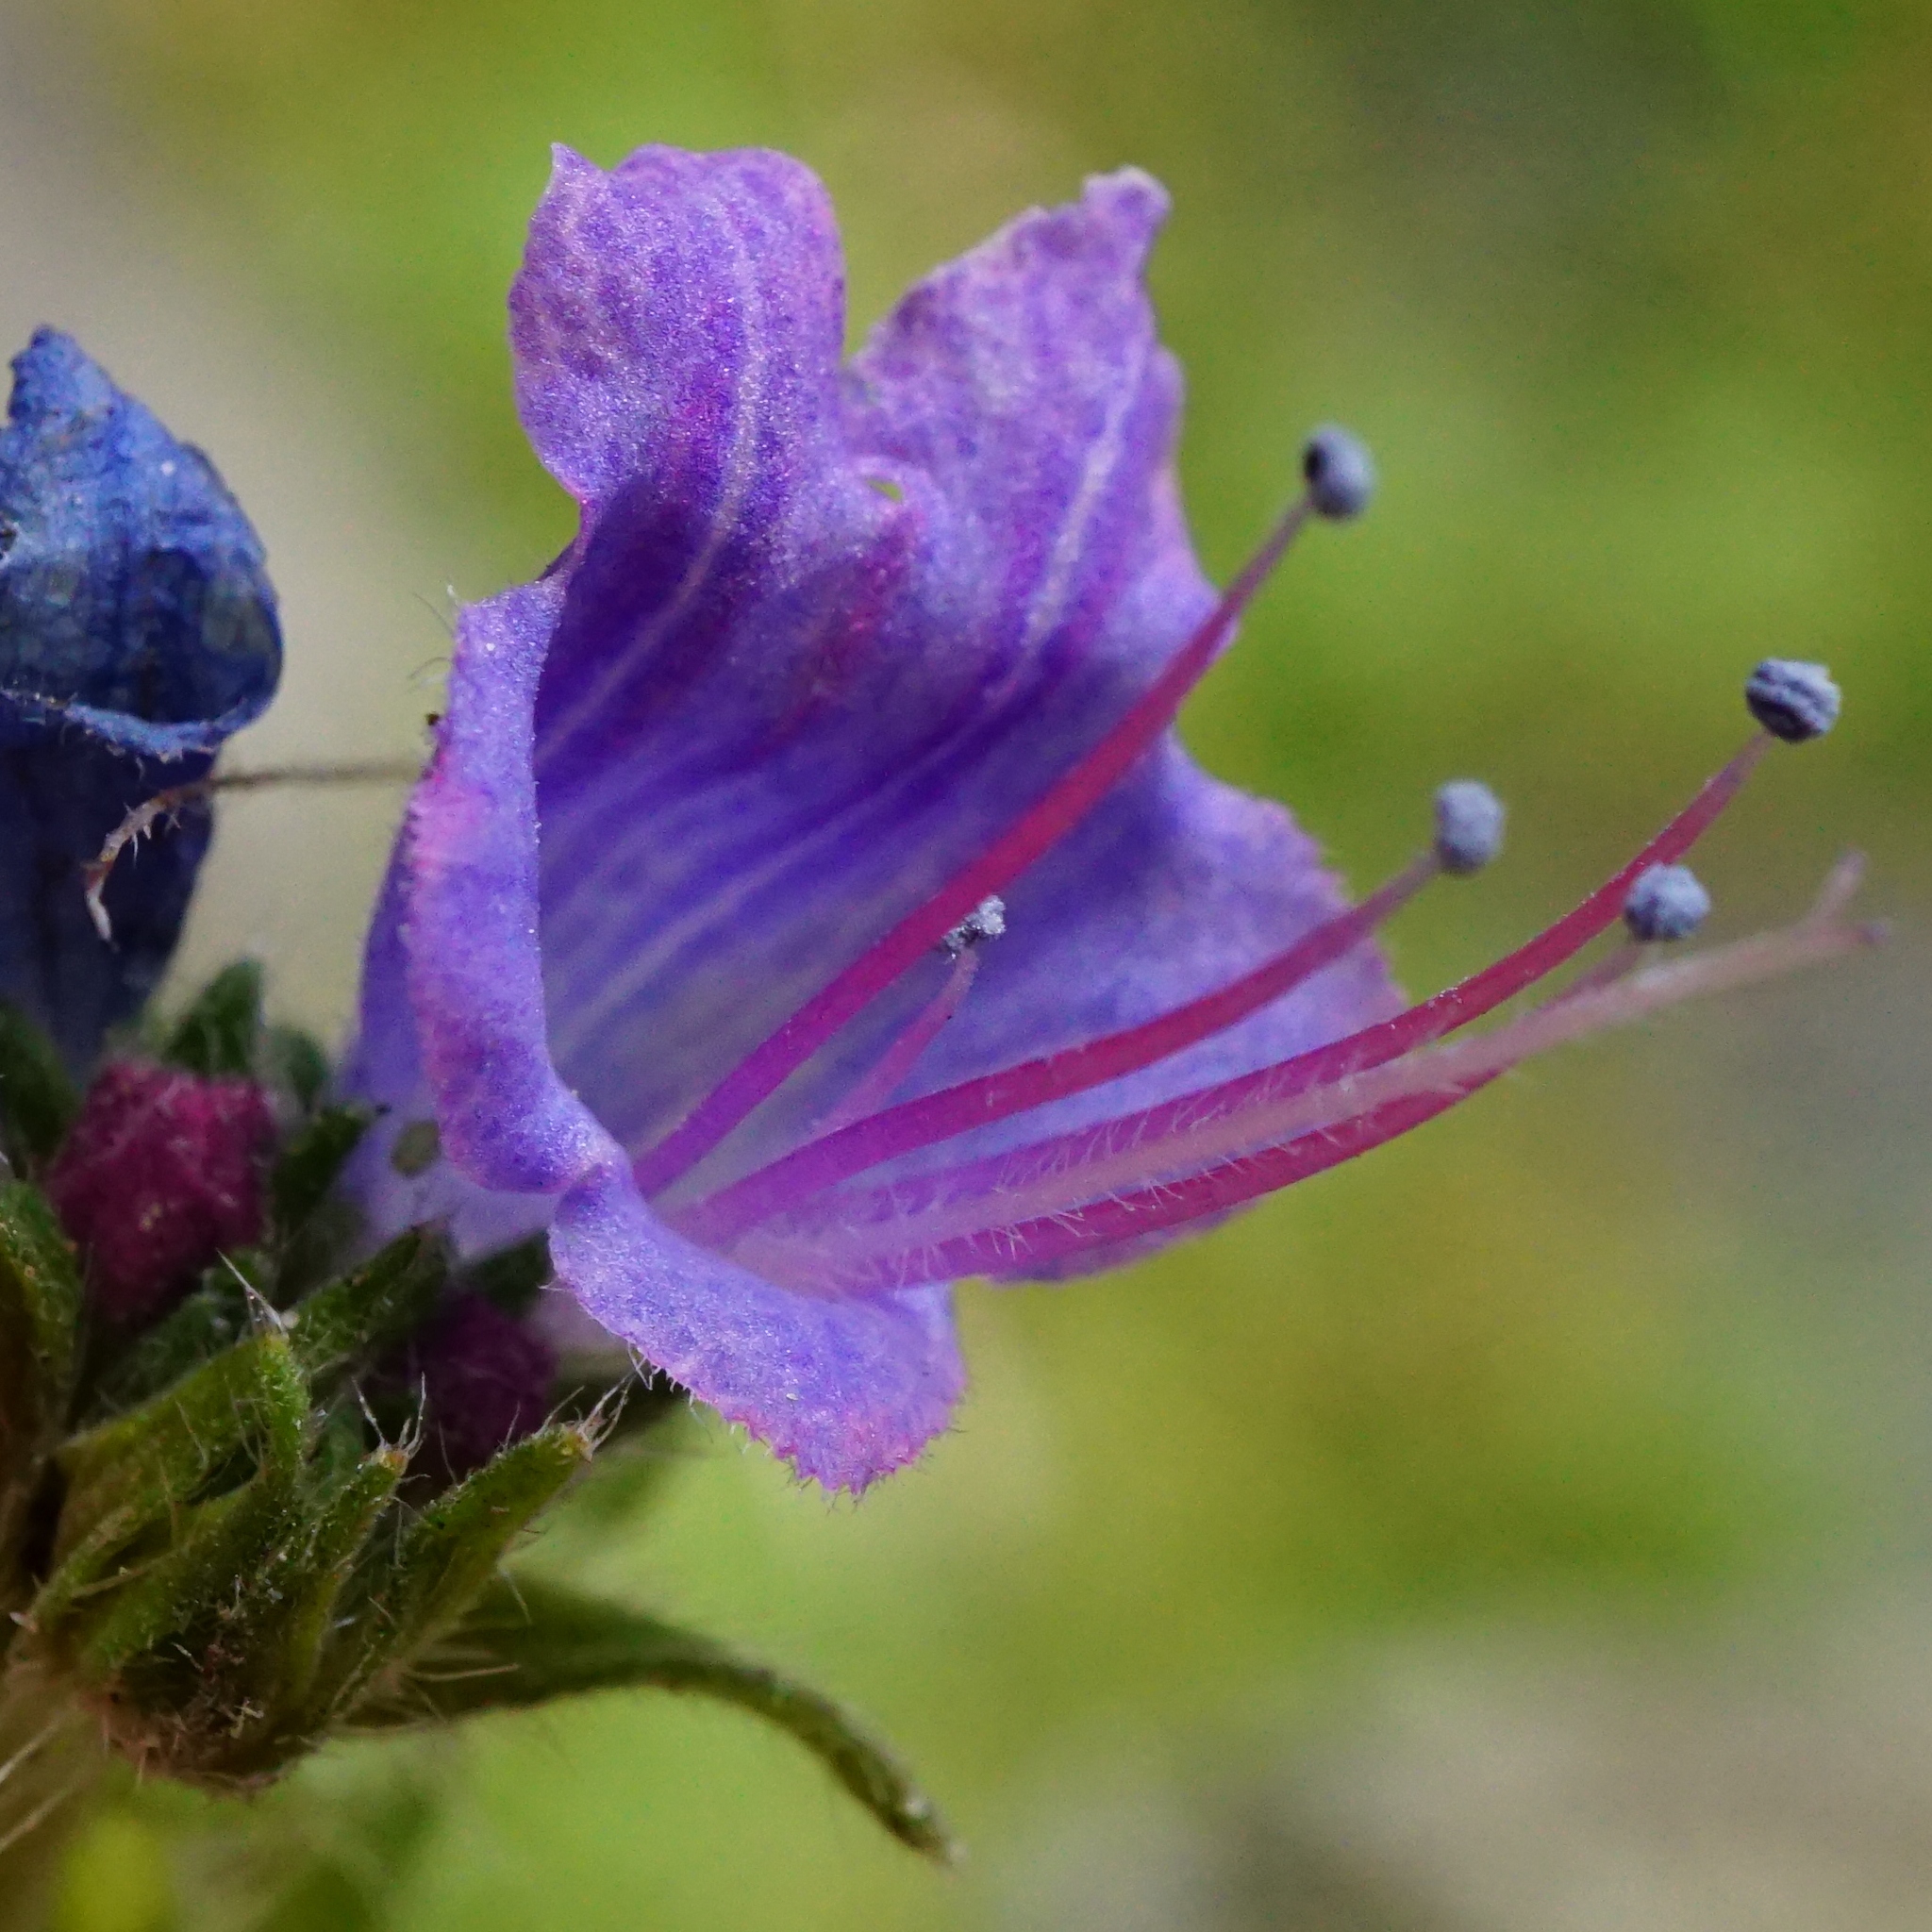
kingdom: Plantae
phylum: Tracheophyta
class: Magnoliopsida
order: Boraginales
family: Boraginaceae
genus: Echium
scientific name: Echium vulgare
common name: Common viper's bugloss
